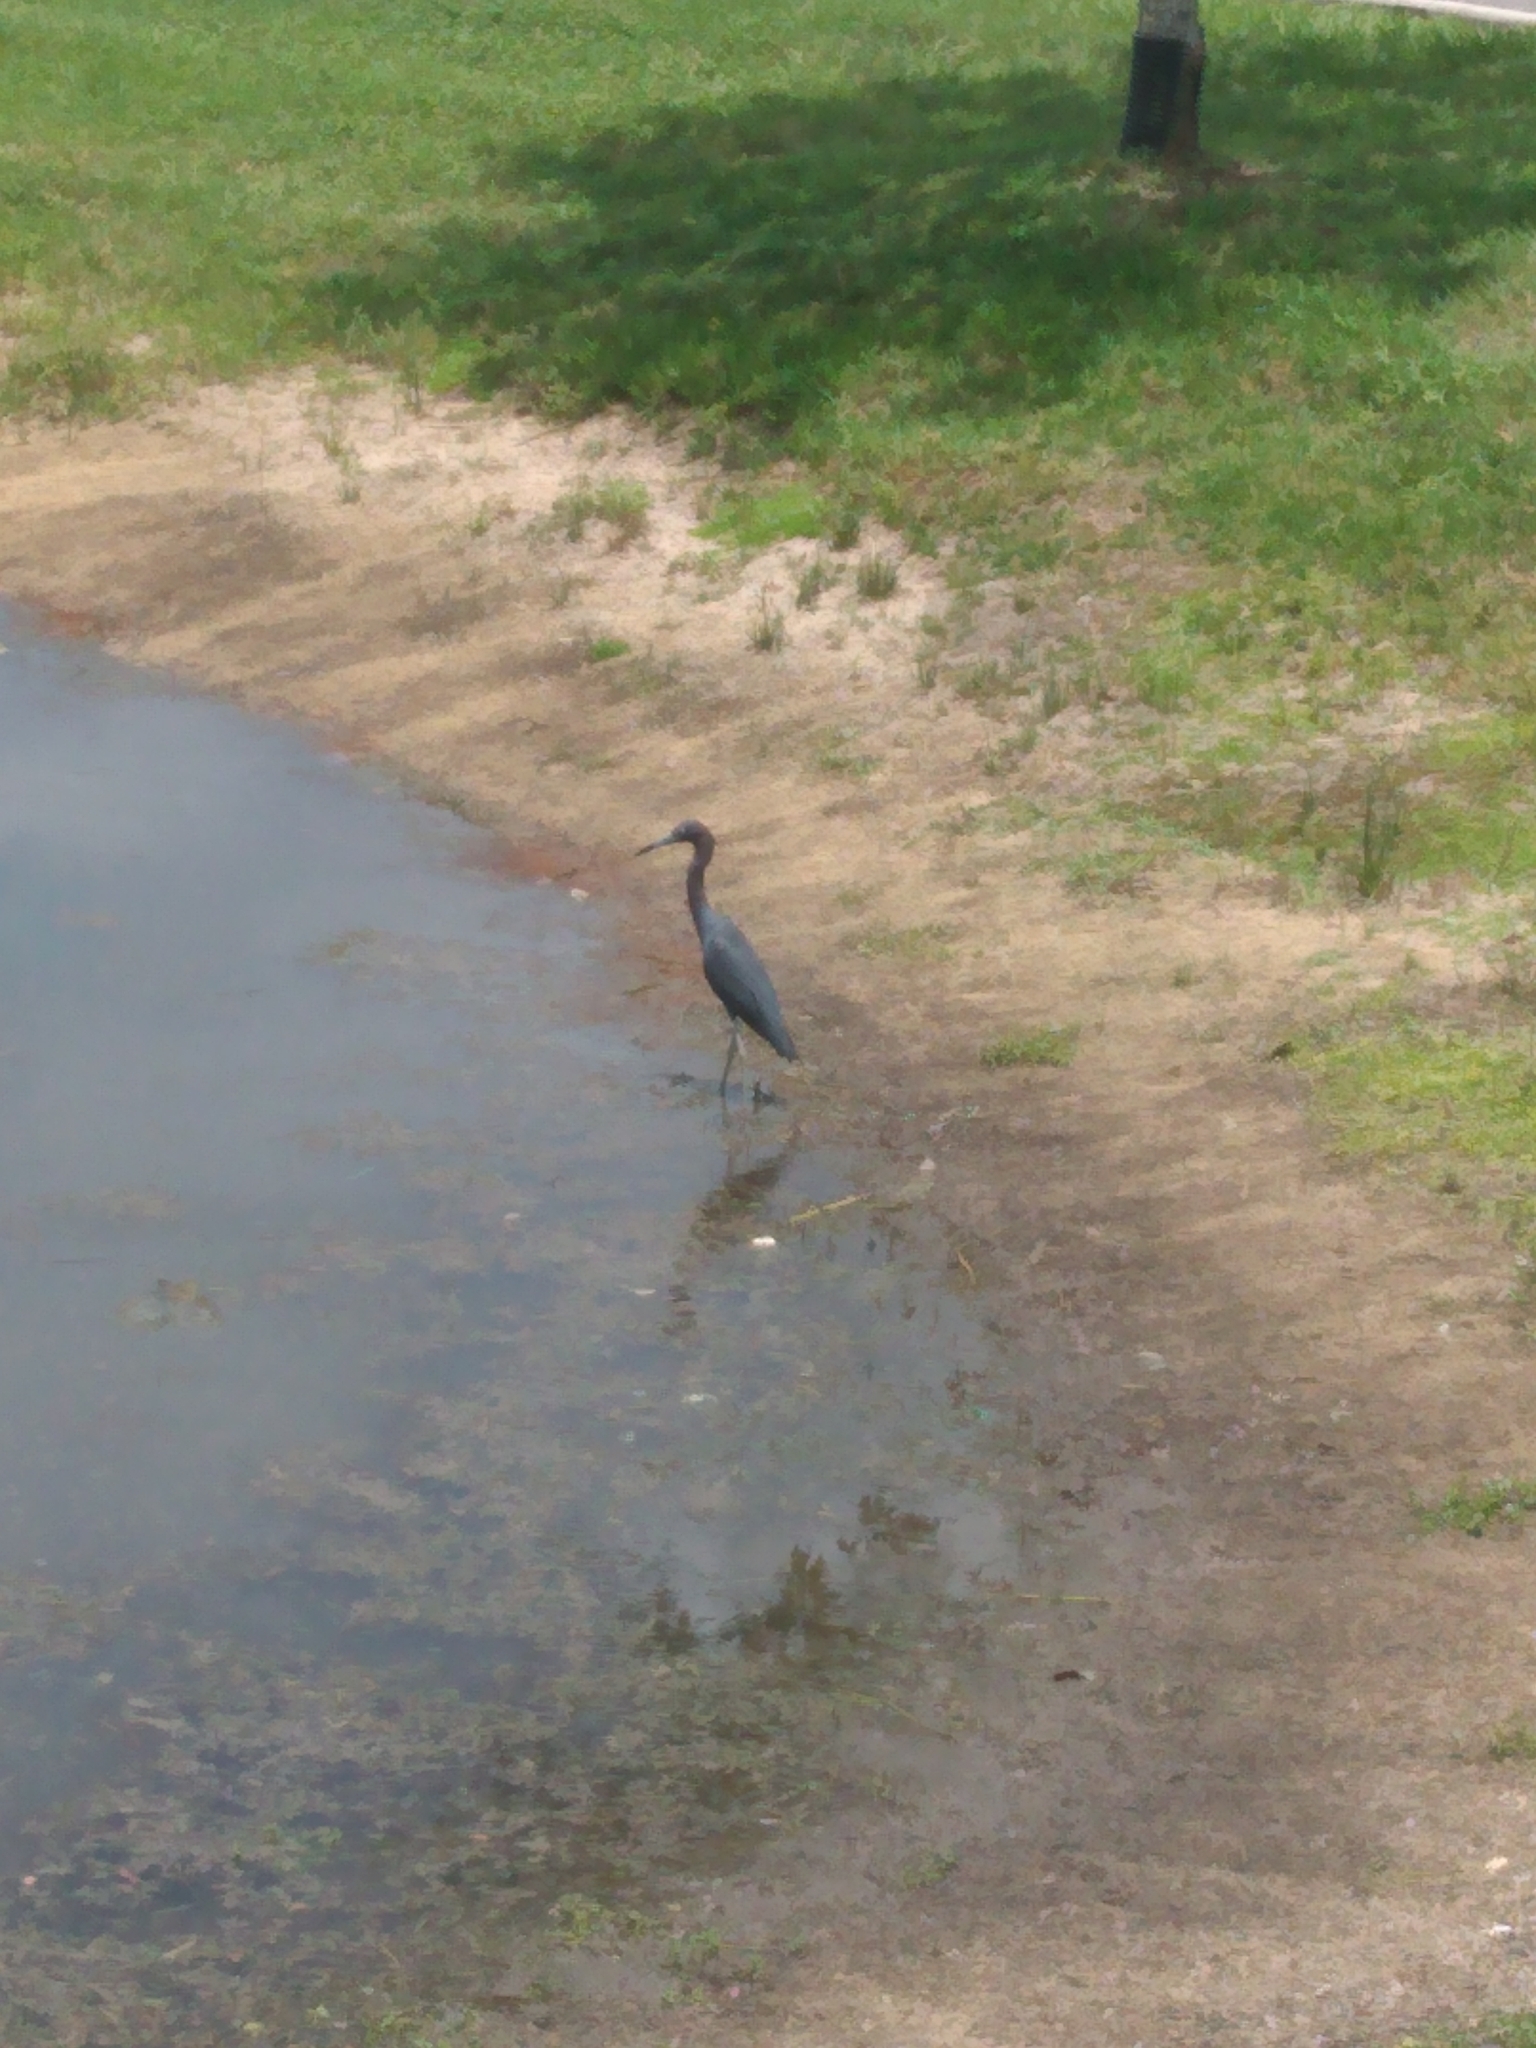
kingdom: Animalia
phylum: Chordata
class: Aves
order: Pelecaniformes
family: Ardeidae
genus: Egretta
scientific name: Egretta caerulea
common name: Little blue heron
